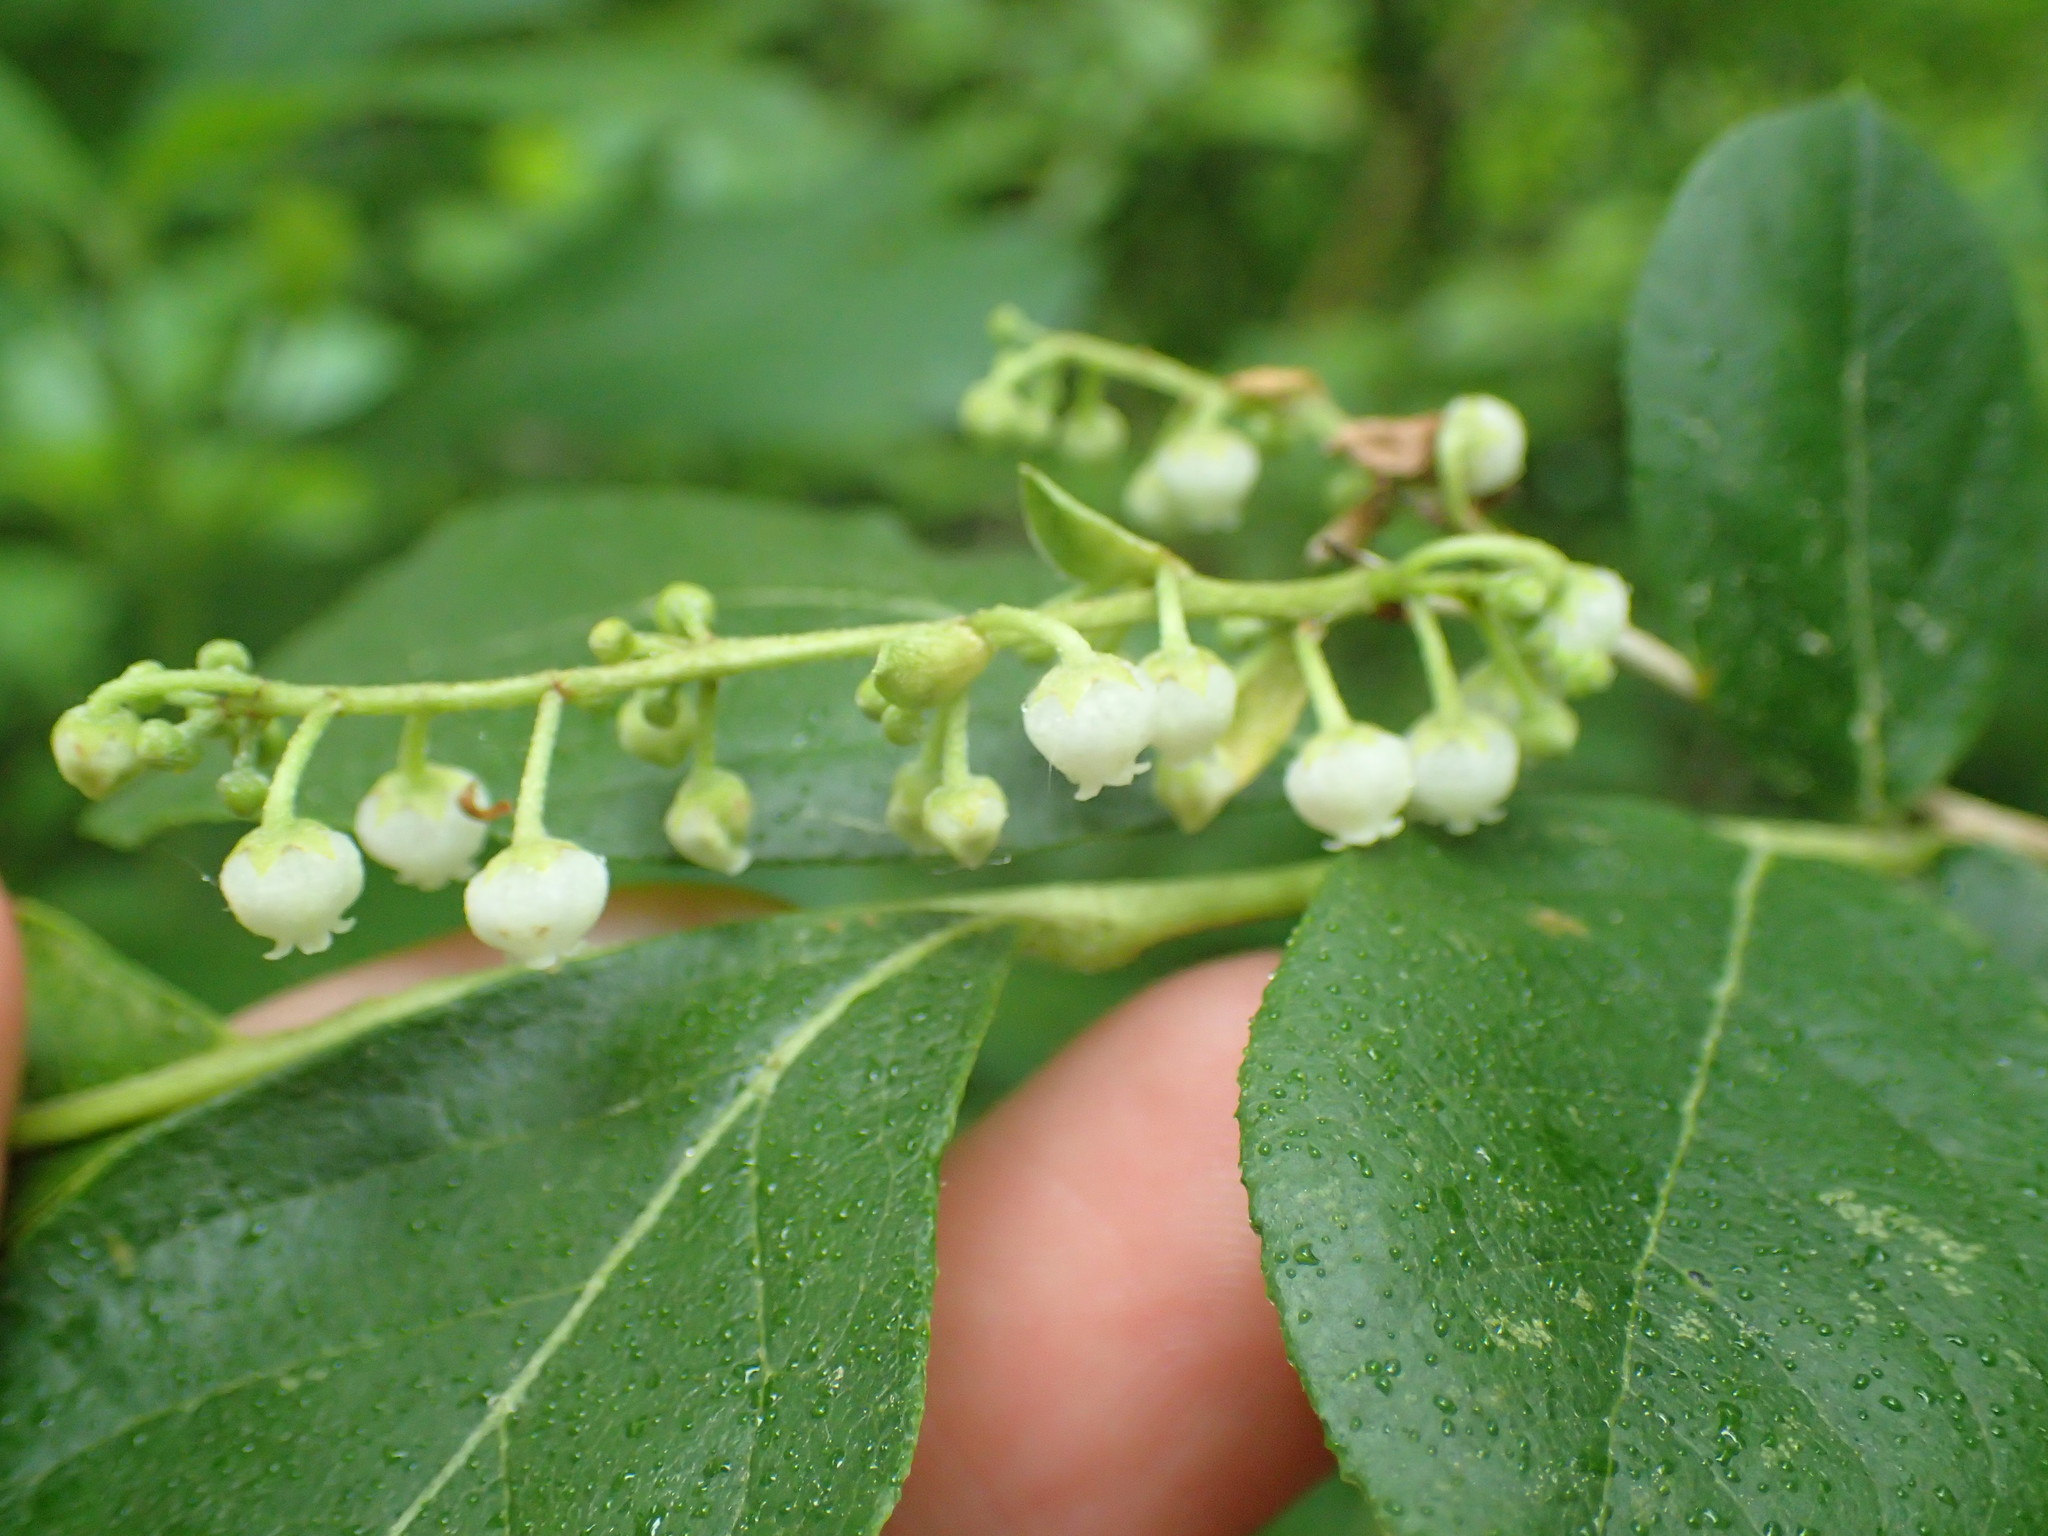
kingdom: Plantae
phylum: Tracheophyta
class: Magnoliopsida
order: Ericales
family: Ericaceae
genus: Lyonia
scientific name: Lyonia ligustrina
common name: Maleberry
